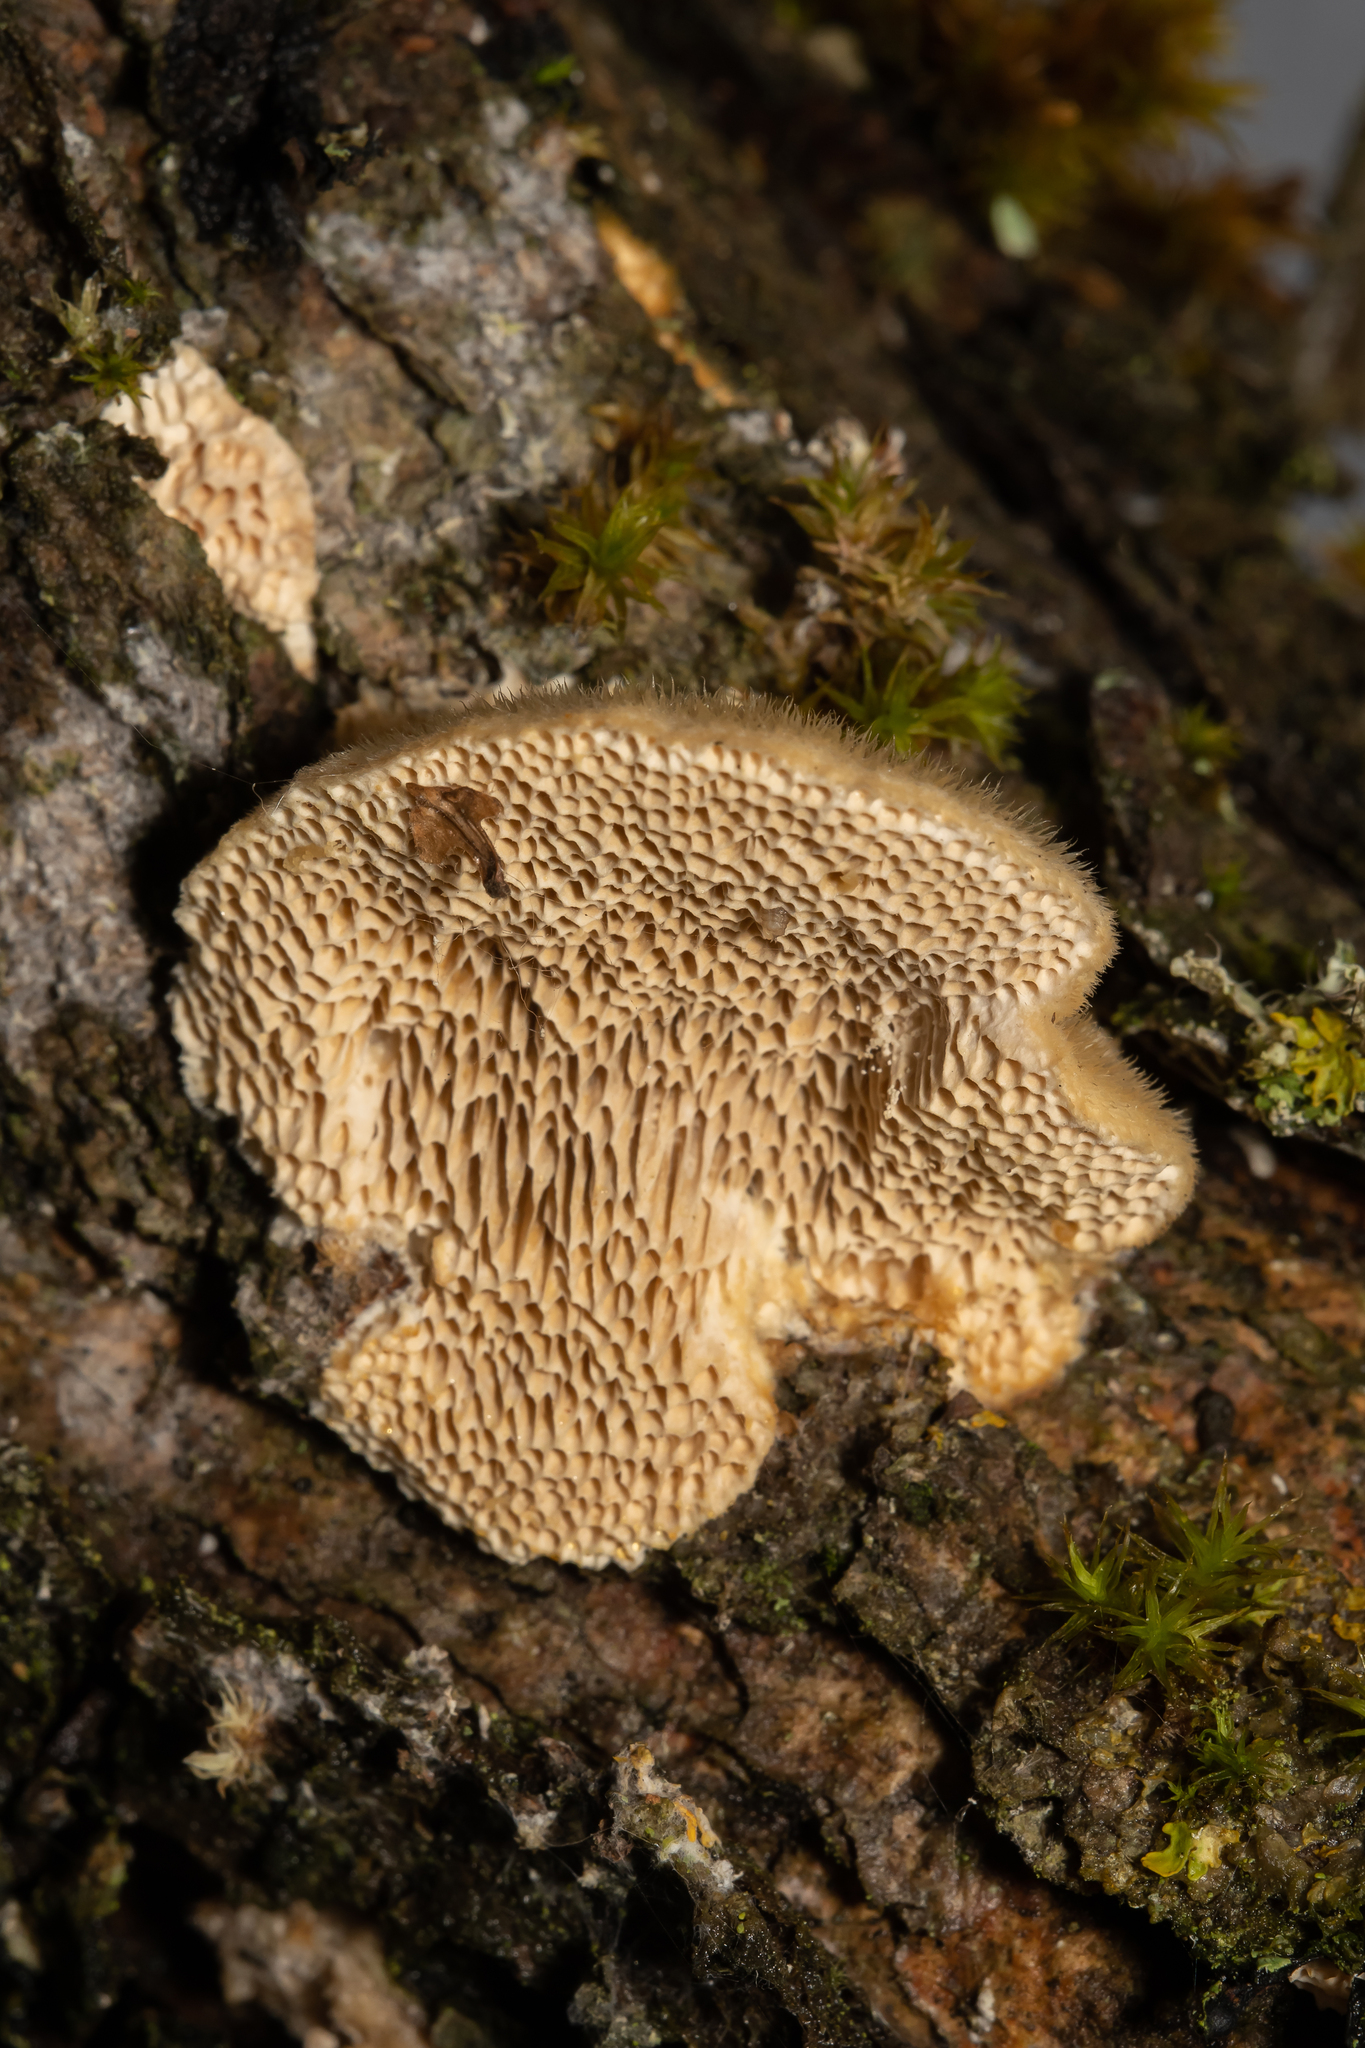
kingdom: Fungi
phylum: Basidiomycota
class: Agaricomycetes
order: Polyporales
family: Polyporaceae
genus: Trametes
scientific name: Trametes trogii
